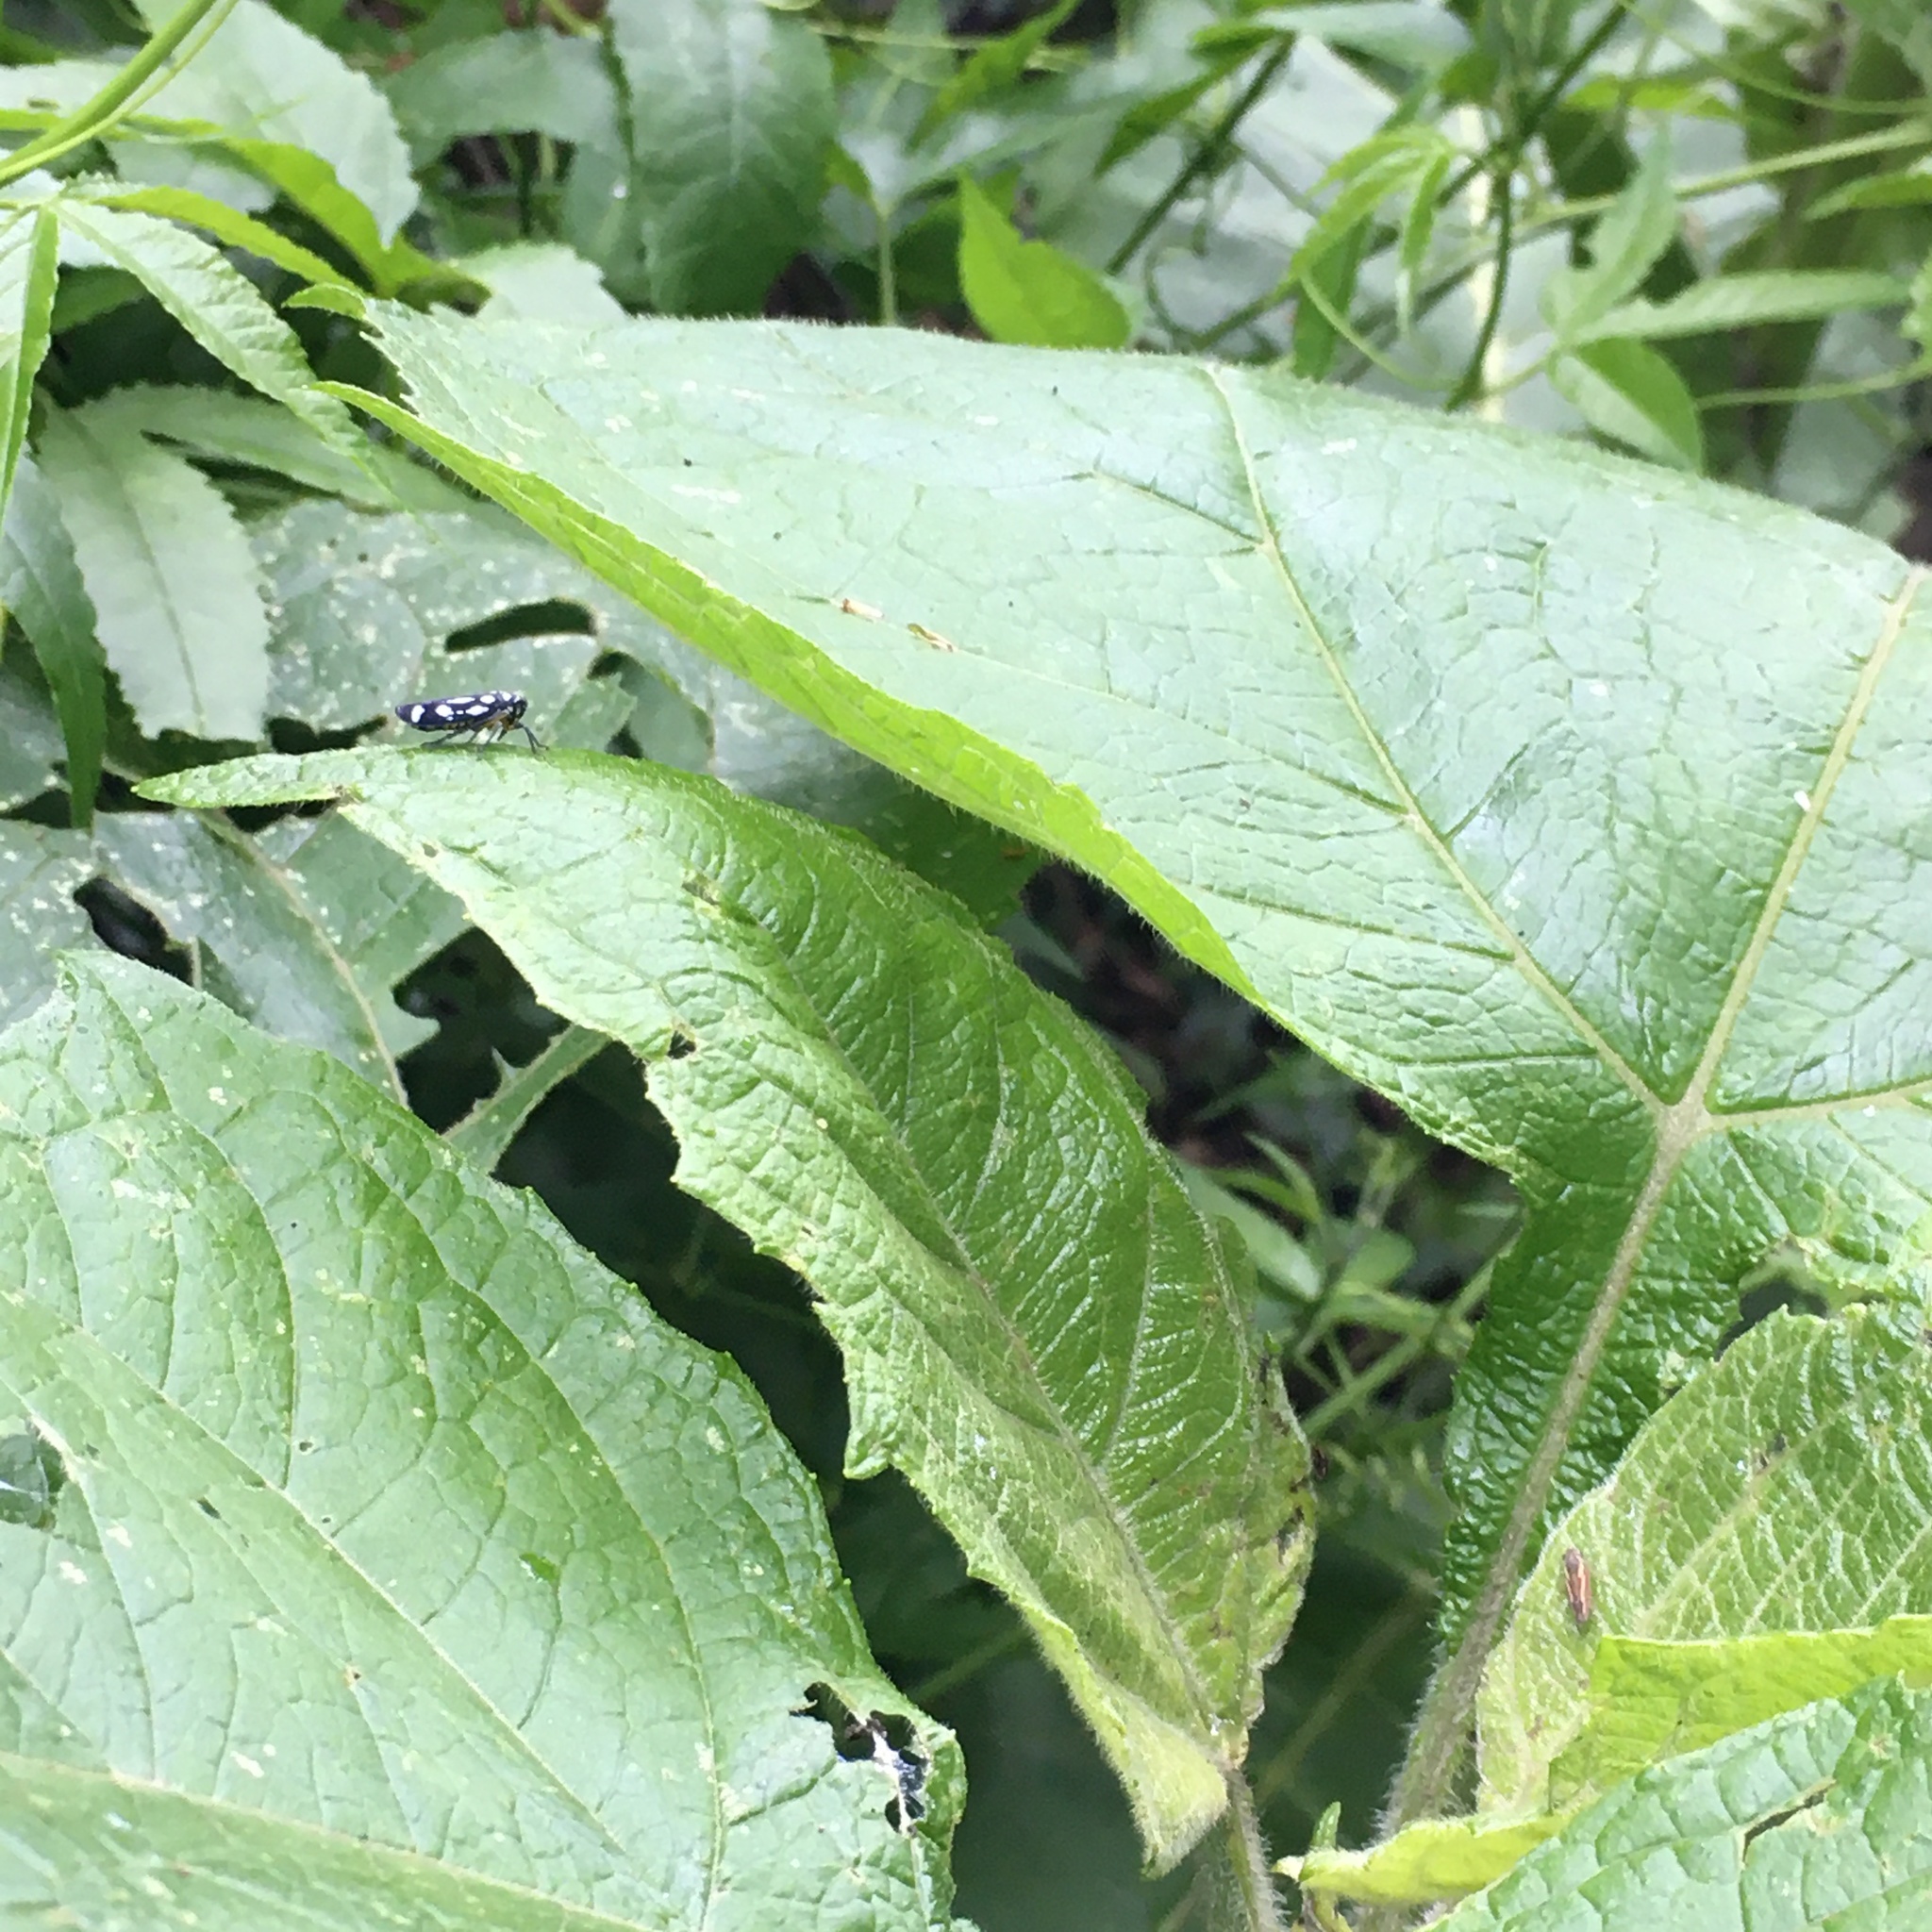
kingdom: Animalia
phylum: Arthropoda
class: Insecta
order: Hemiptera
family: Cicadellidae
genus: Stehlikiana
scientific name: Stehlikiana crassa
